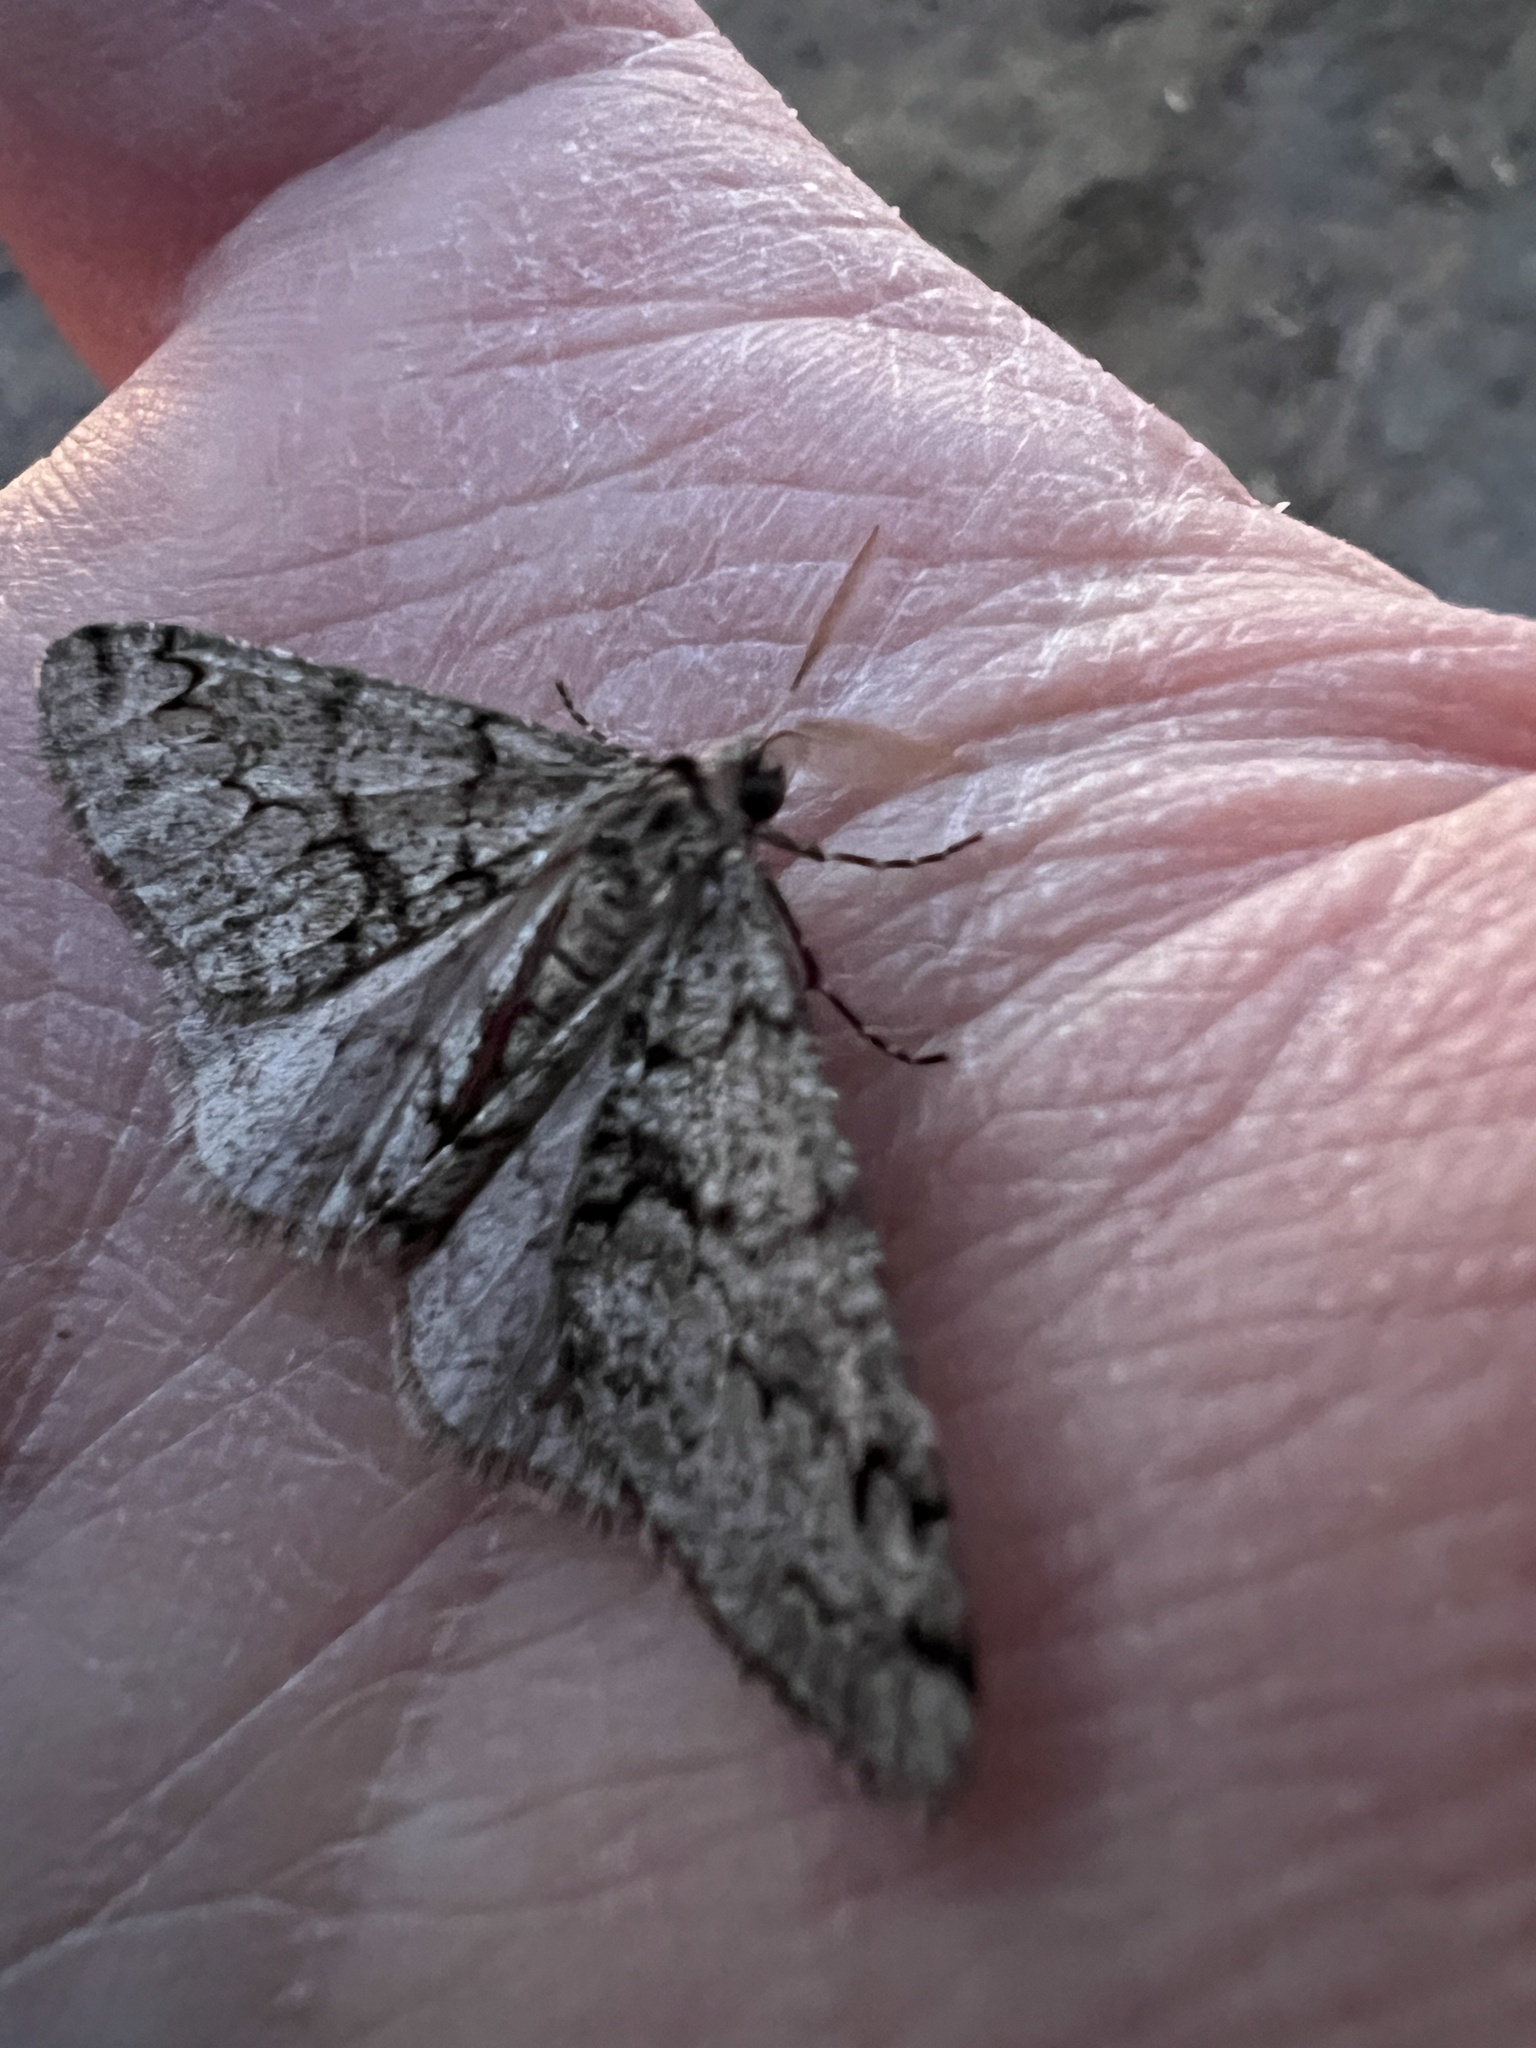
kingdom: Animalia
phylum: Arthropoda
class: Insecta
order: Lepidoptera
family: Geometridae
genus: Phigalia
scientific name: Phigalia denticulata
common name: Toothed phigalia
